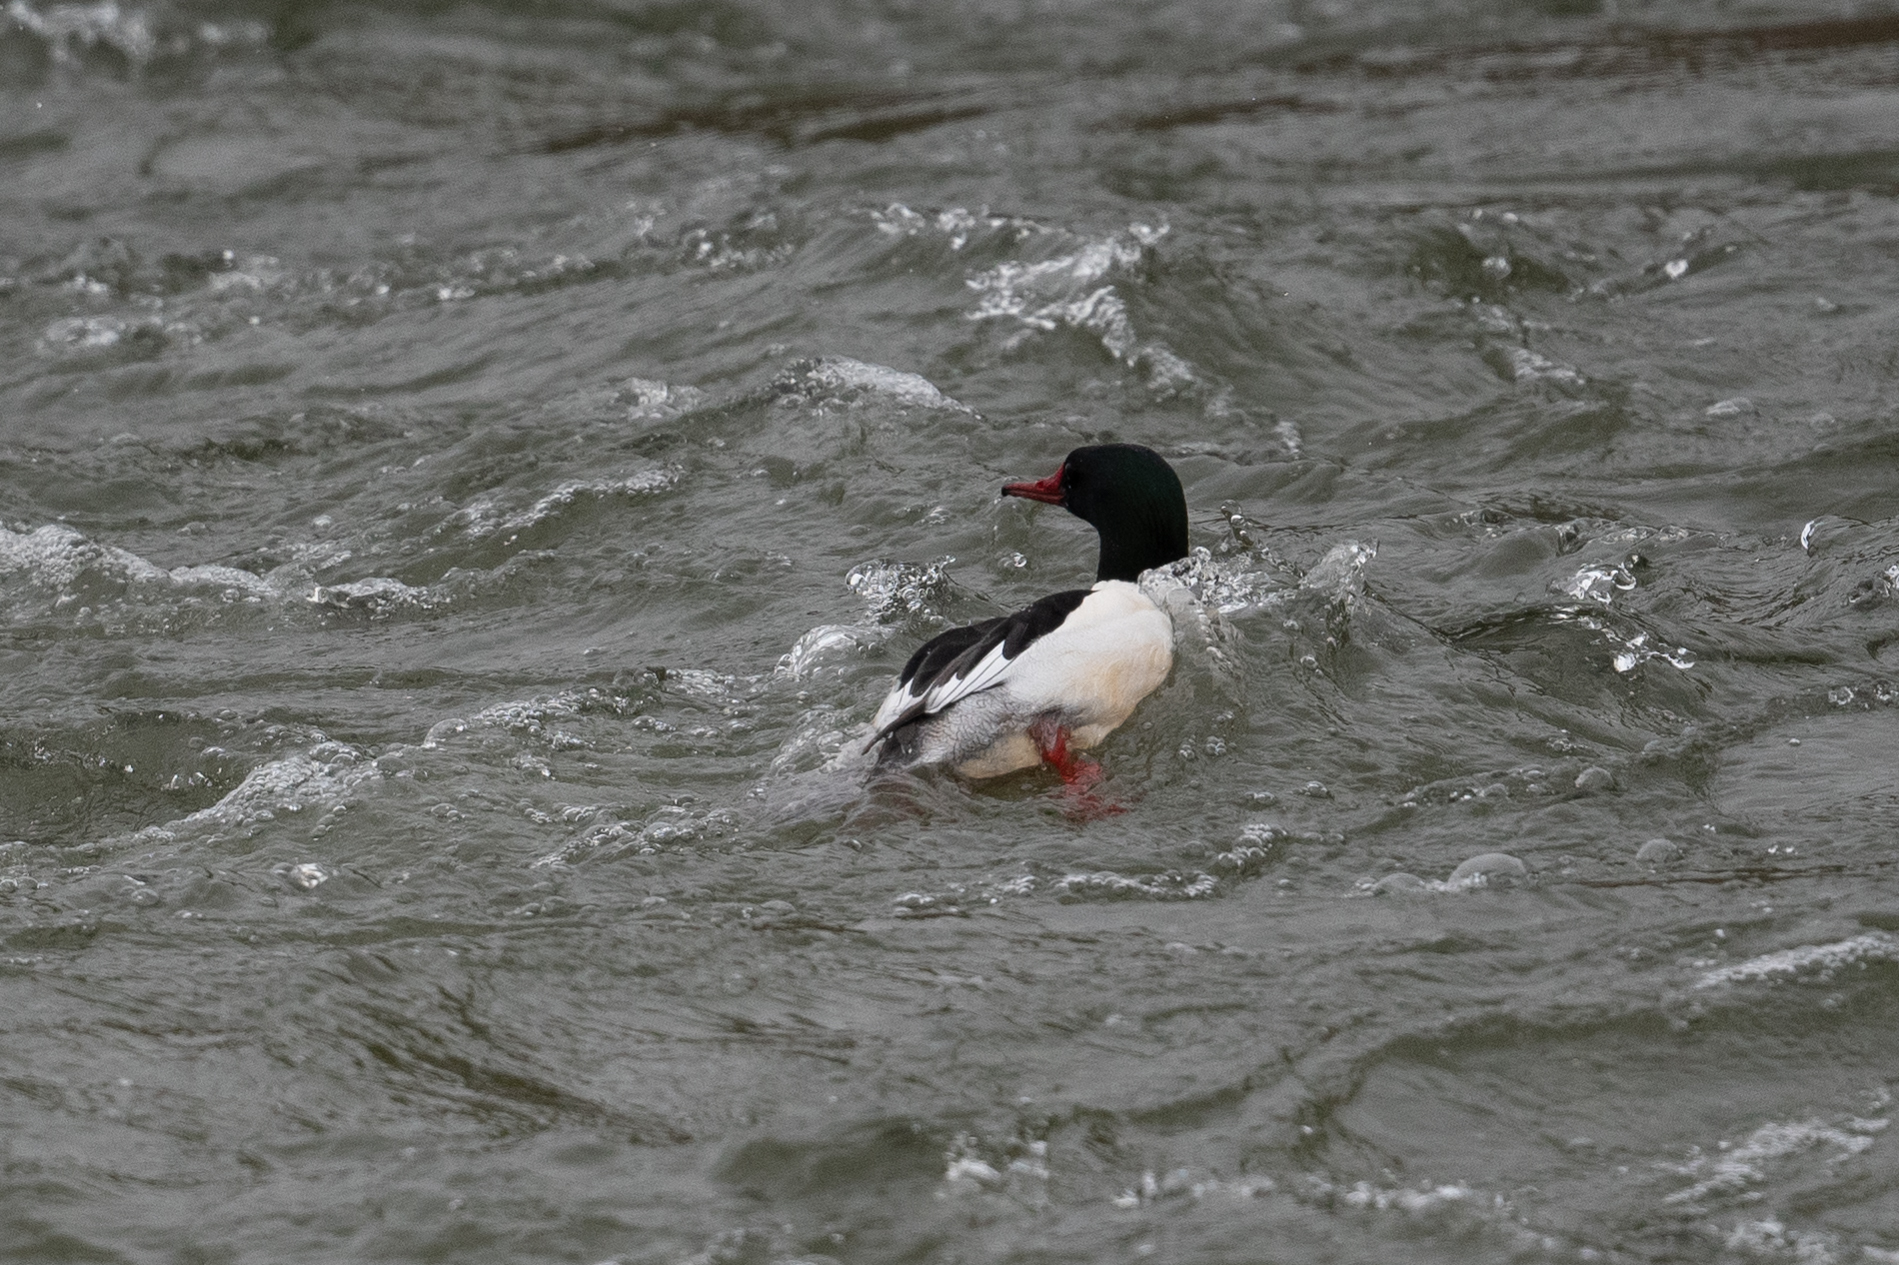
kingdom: Animalia
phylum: Chordata
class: Aves
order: Anseriformes
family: Anatidae
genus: Mergus
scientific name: Mergus merganser
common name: Common merganser
